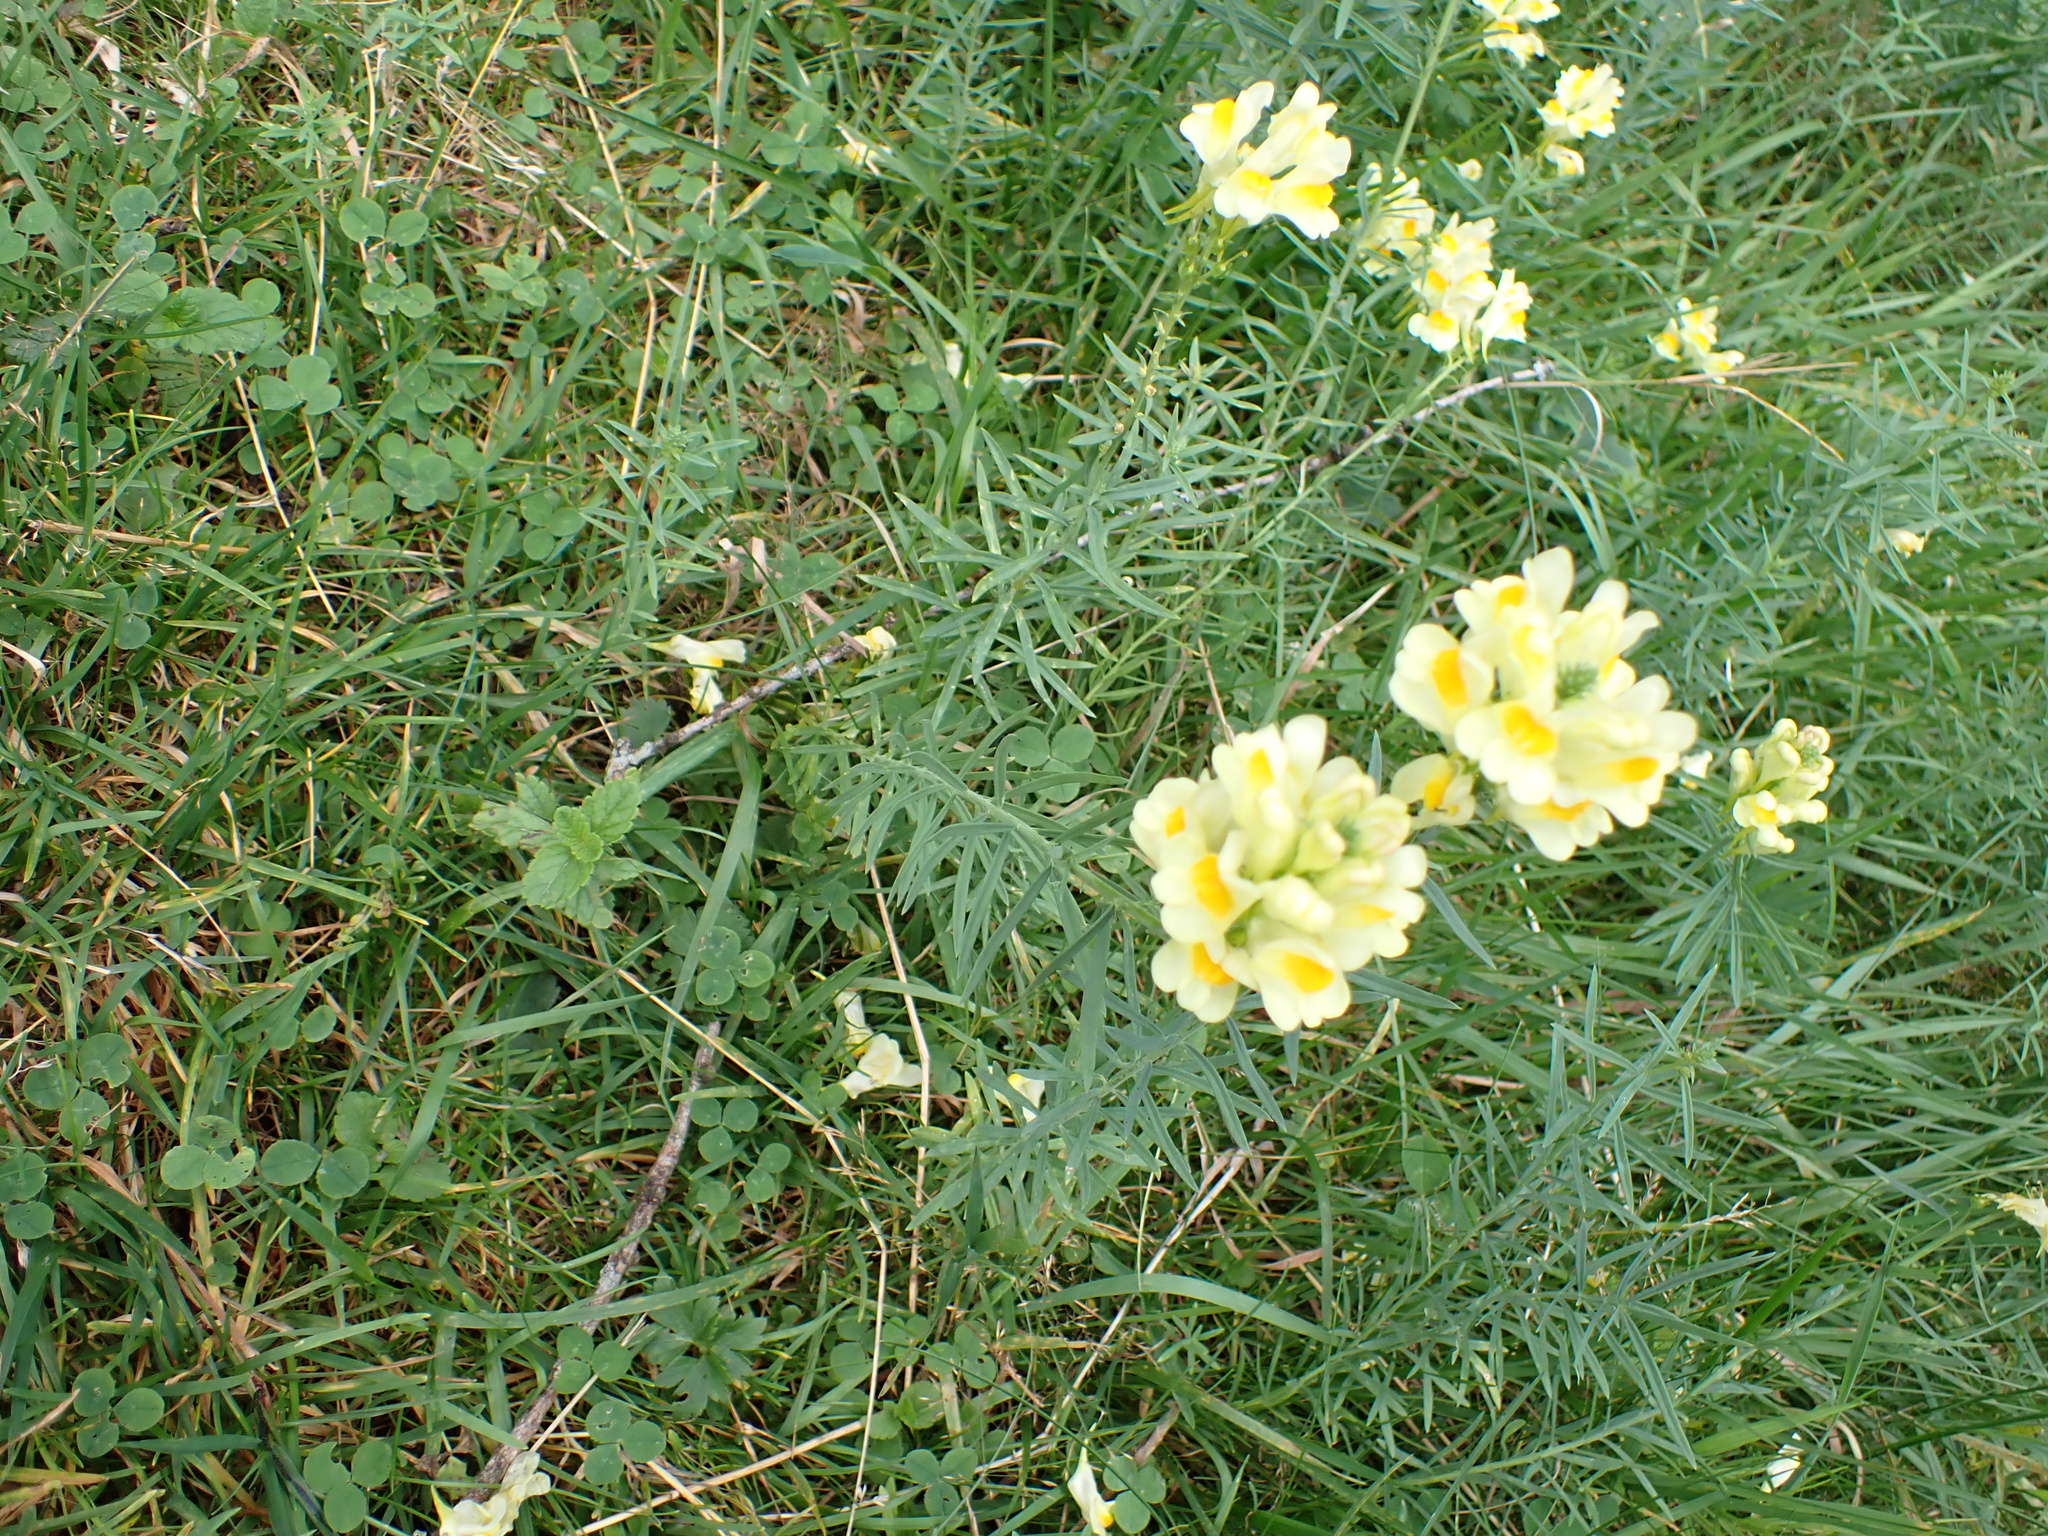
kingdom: Plantae
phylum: Tracheophyta
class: Magnoliopsida
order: Lamiales
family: Plantaginaceae
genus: Linaria
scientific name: Linaria vulgaris
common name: Butter and eggs
